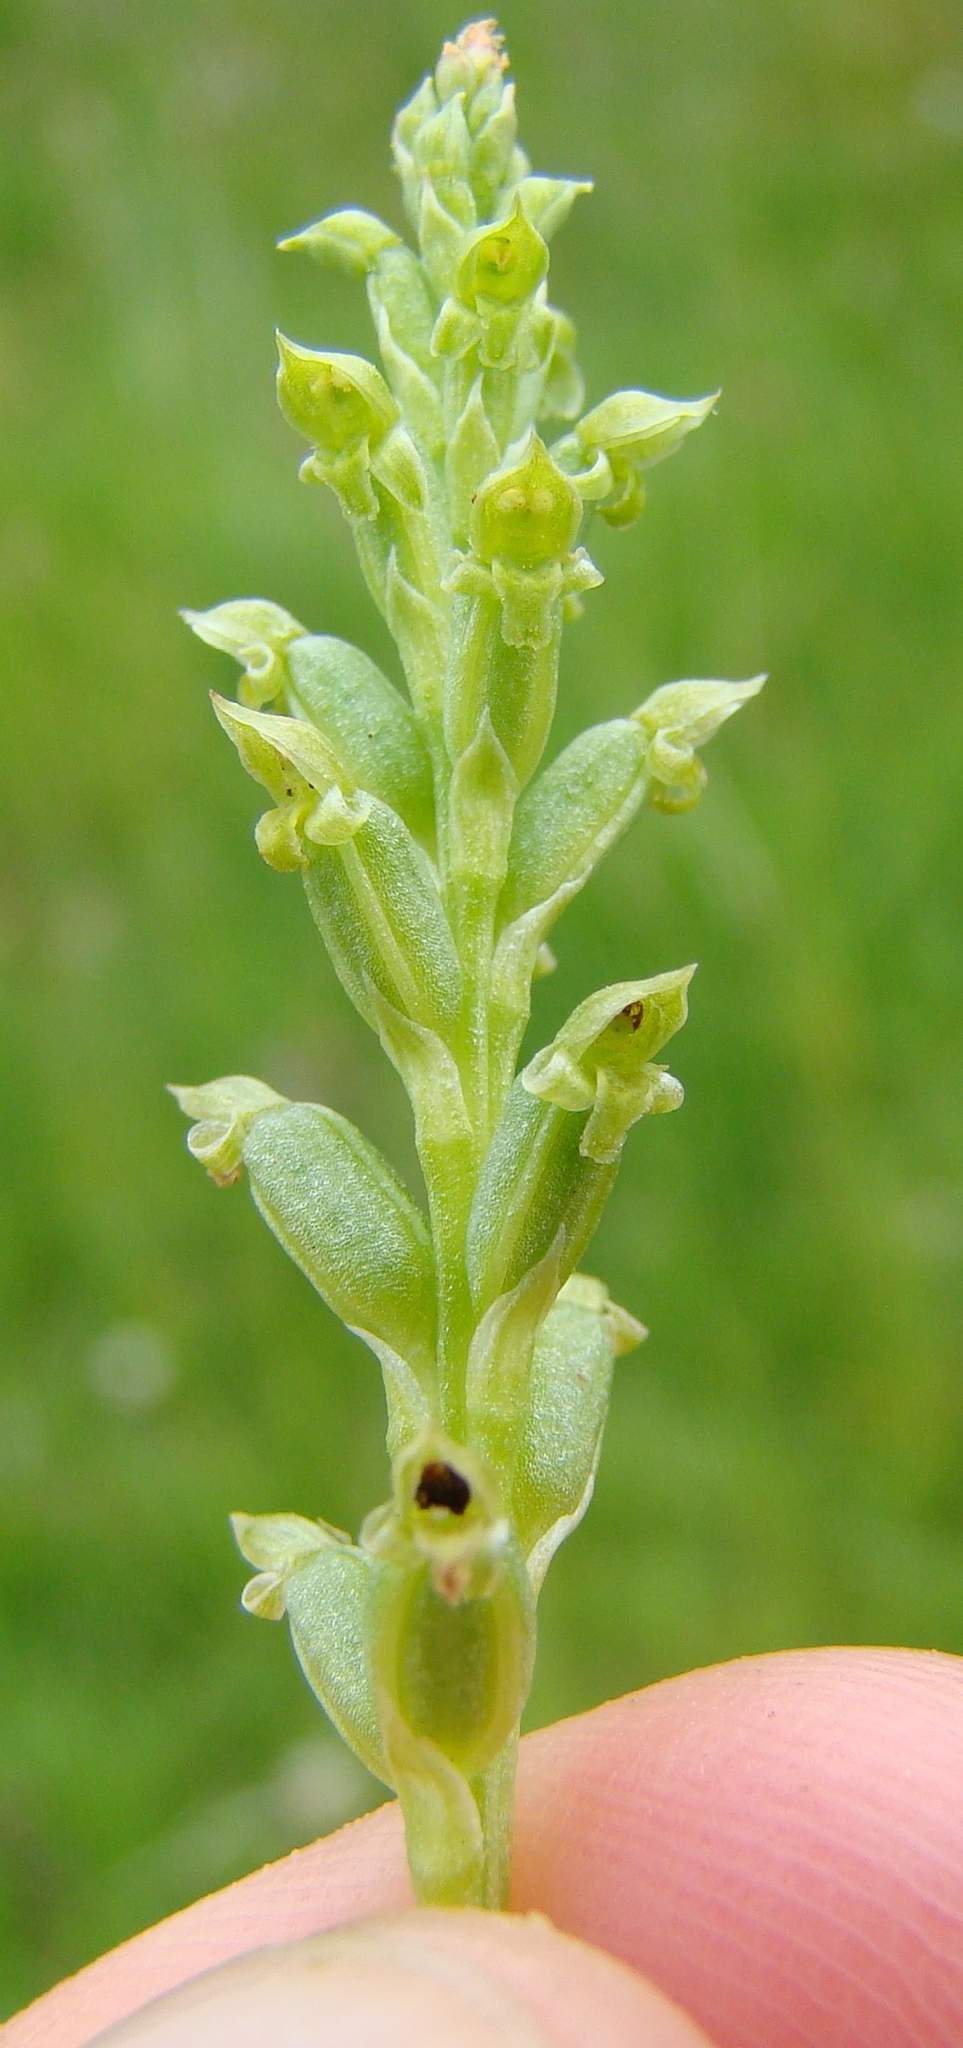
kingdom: Plantae
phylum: Tracheophyta
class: Liliopsida
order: Asparagales
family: Orchidaceae
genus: Microtis
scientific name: Microtis unifolia
